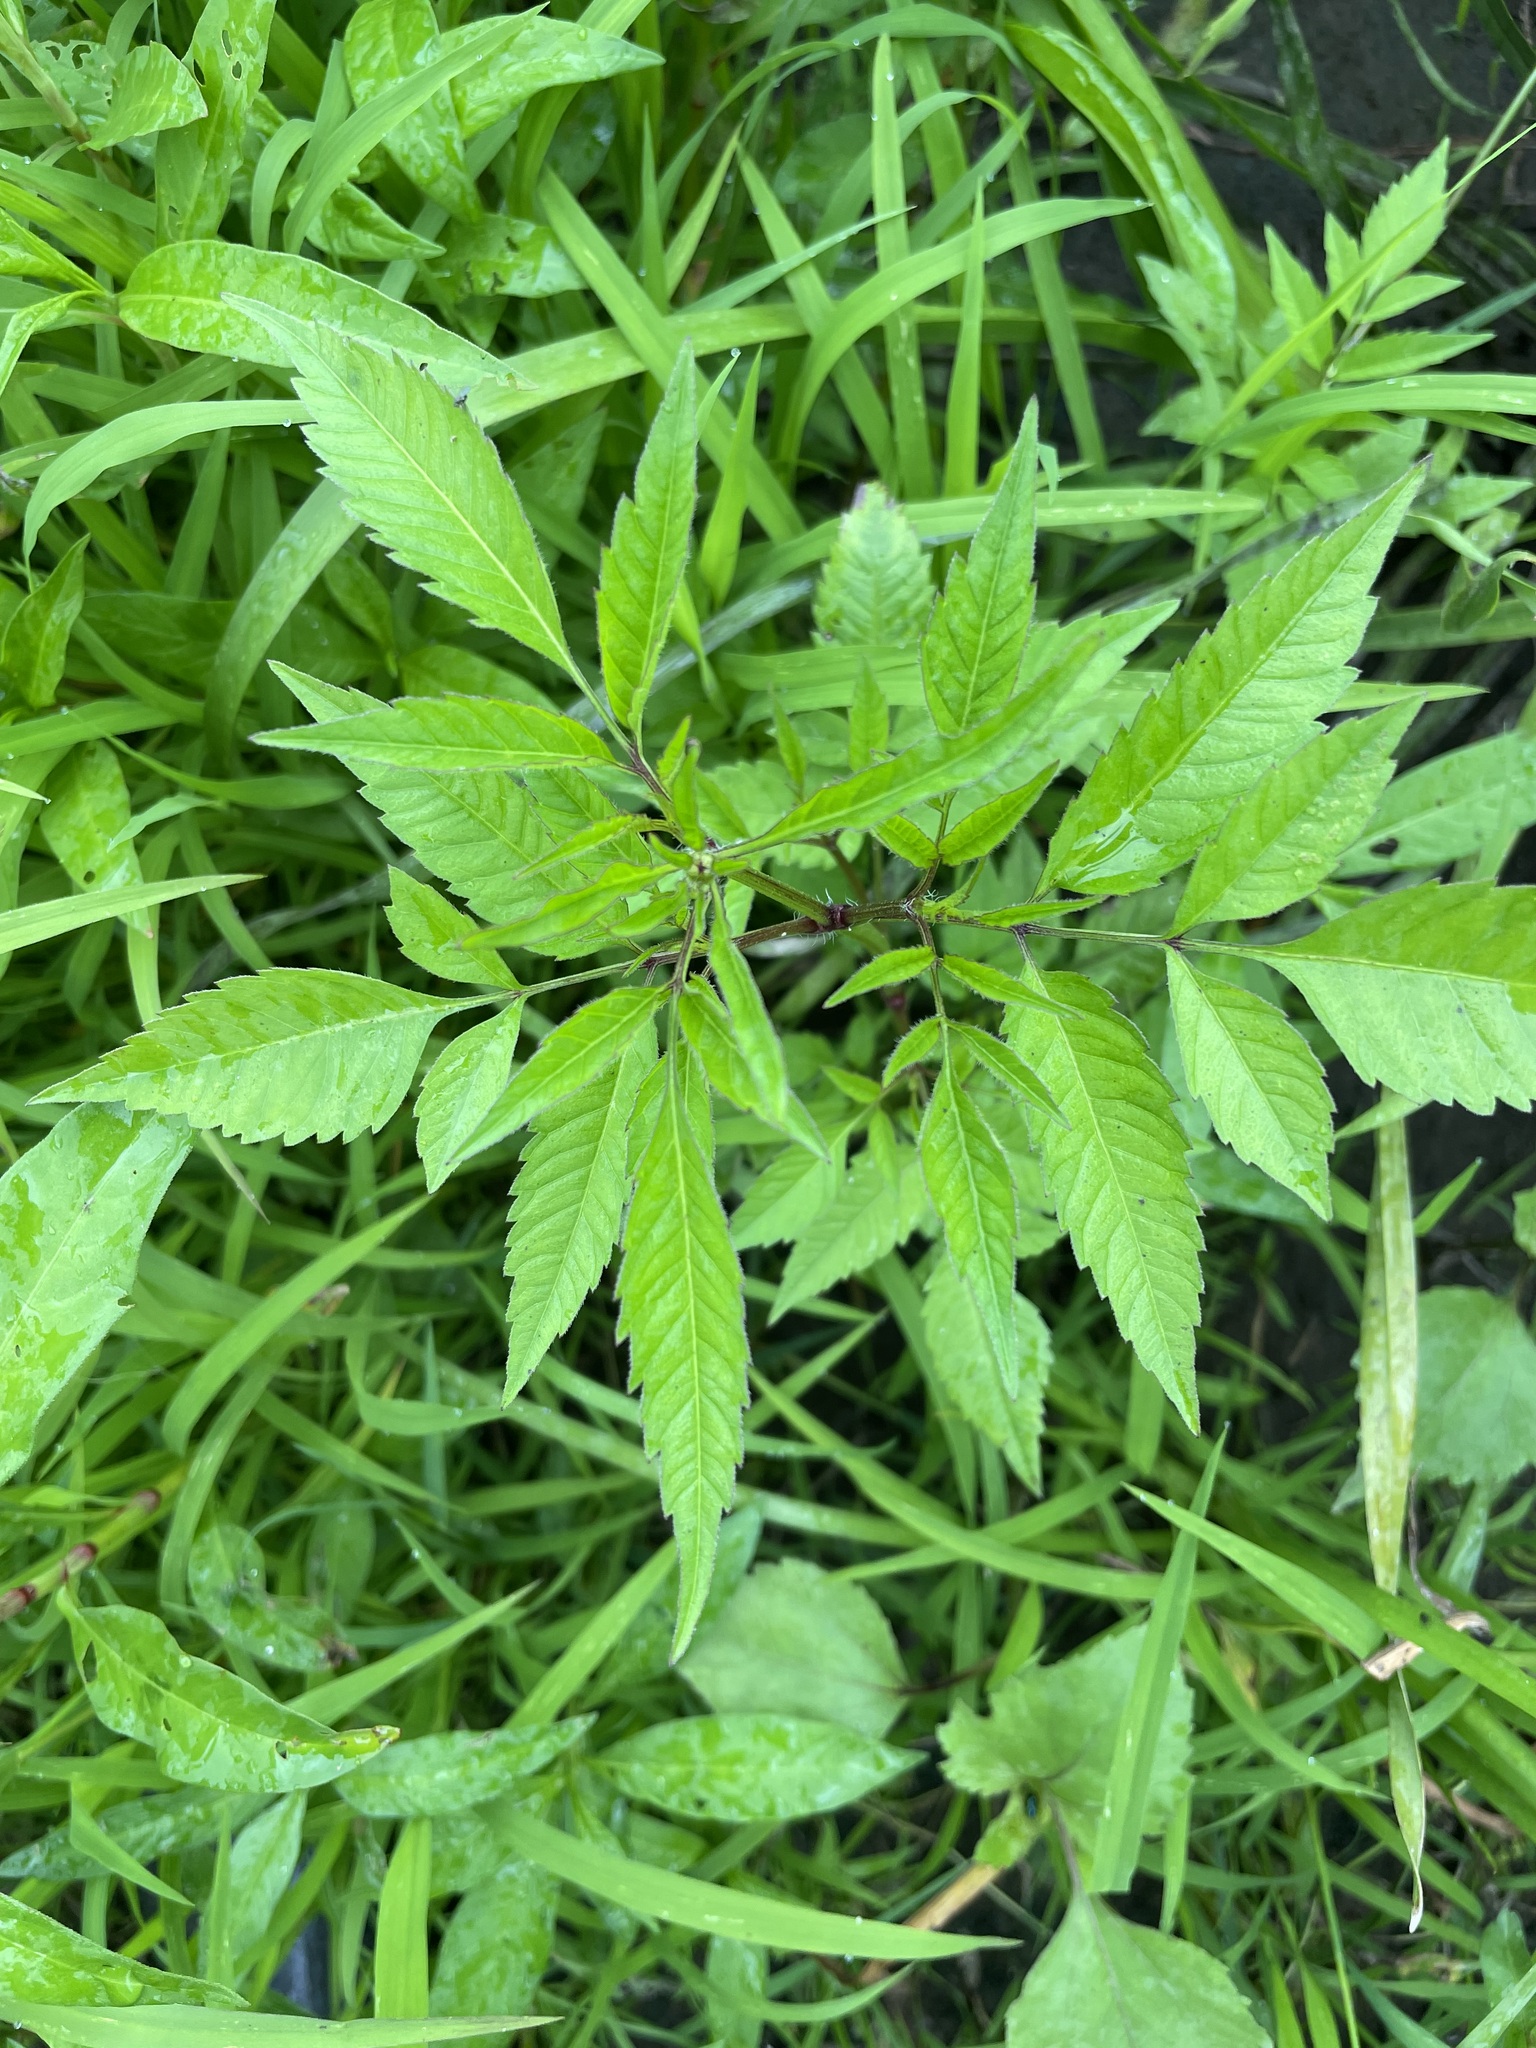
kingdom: Plantae
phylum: Tracheophyta
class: Magnoliopsida
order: Asterales
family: Asteraceae
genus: Bidens
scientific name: Bidens frondosa
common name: Beggarticks
